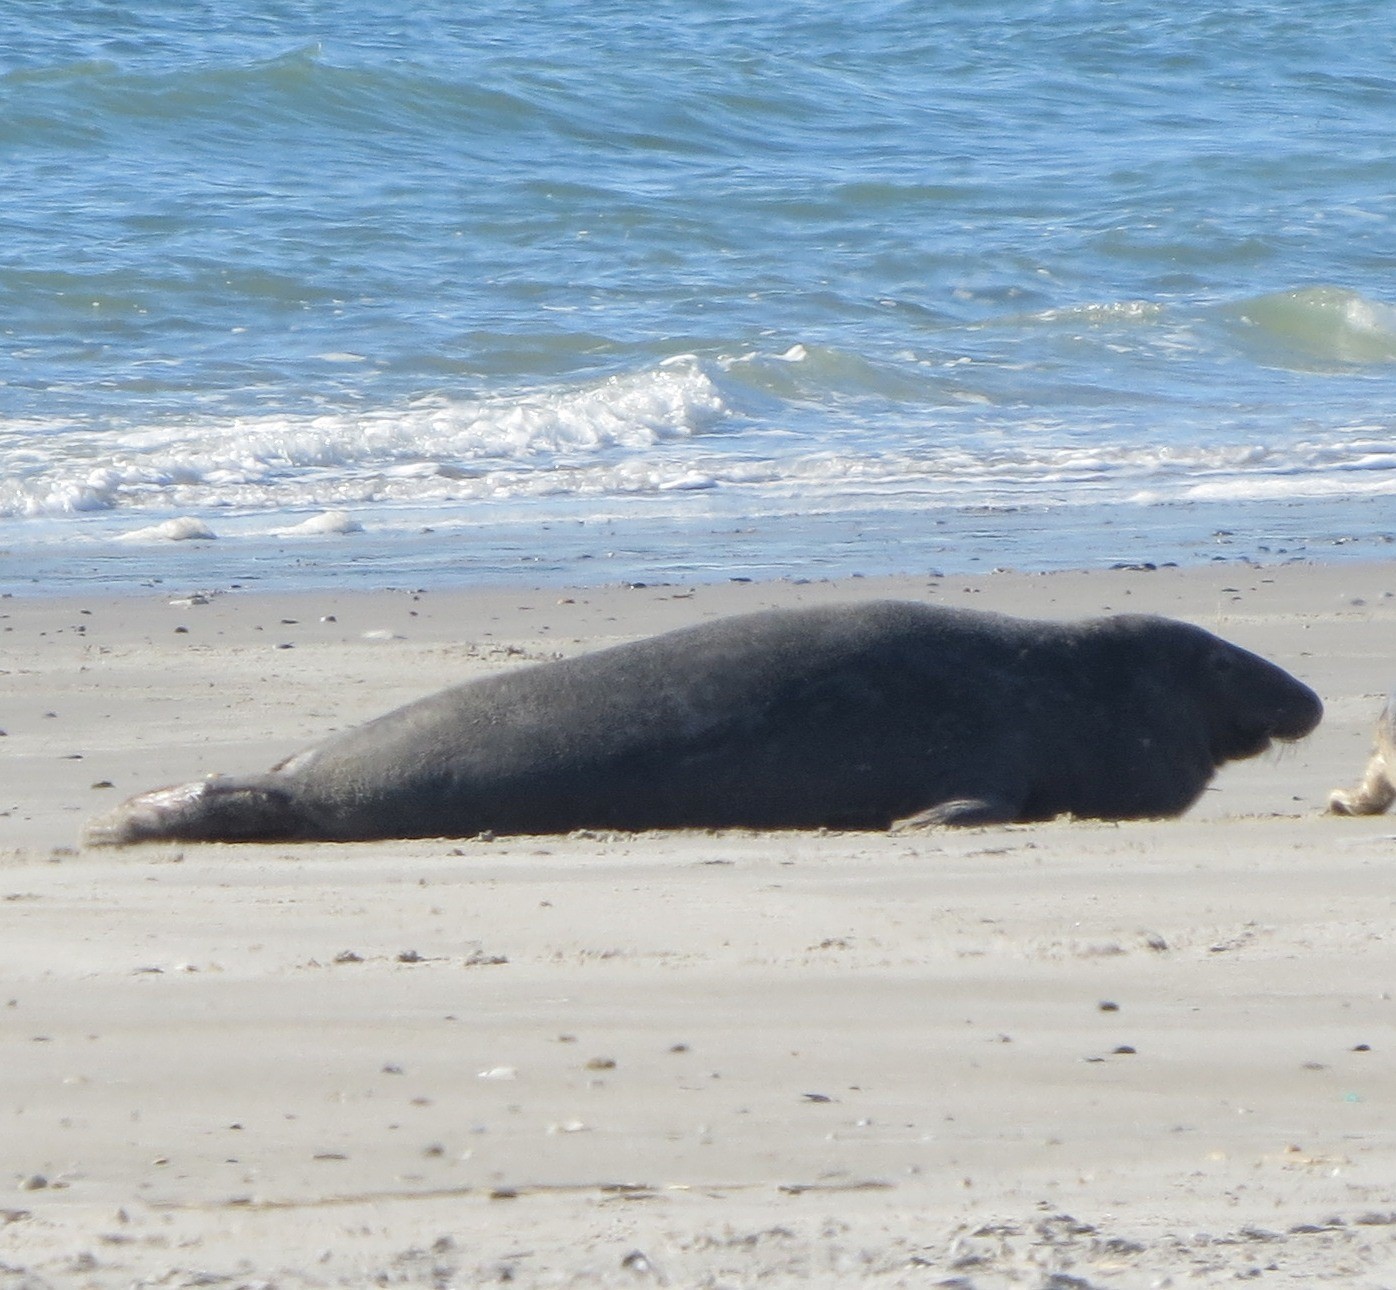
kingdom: Animalia
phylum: Chordata
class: Mammalia
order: Carnivora
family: Phocidae
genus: Halichoerus
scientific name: Halichoerus grypus
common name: Grey seal
